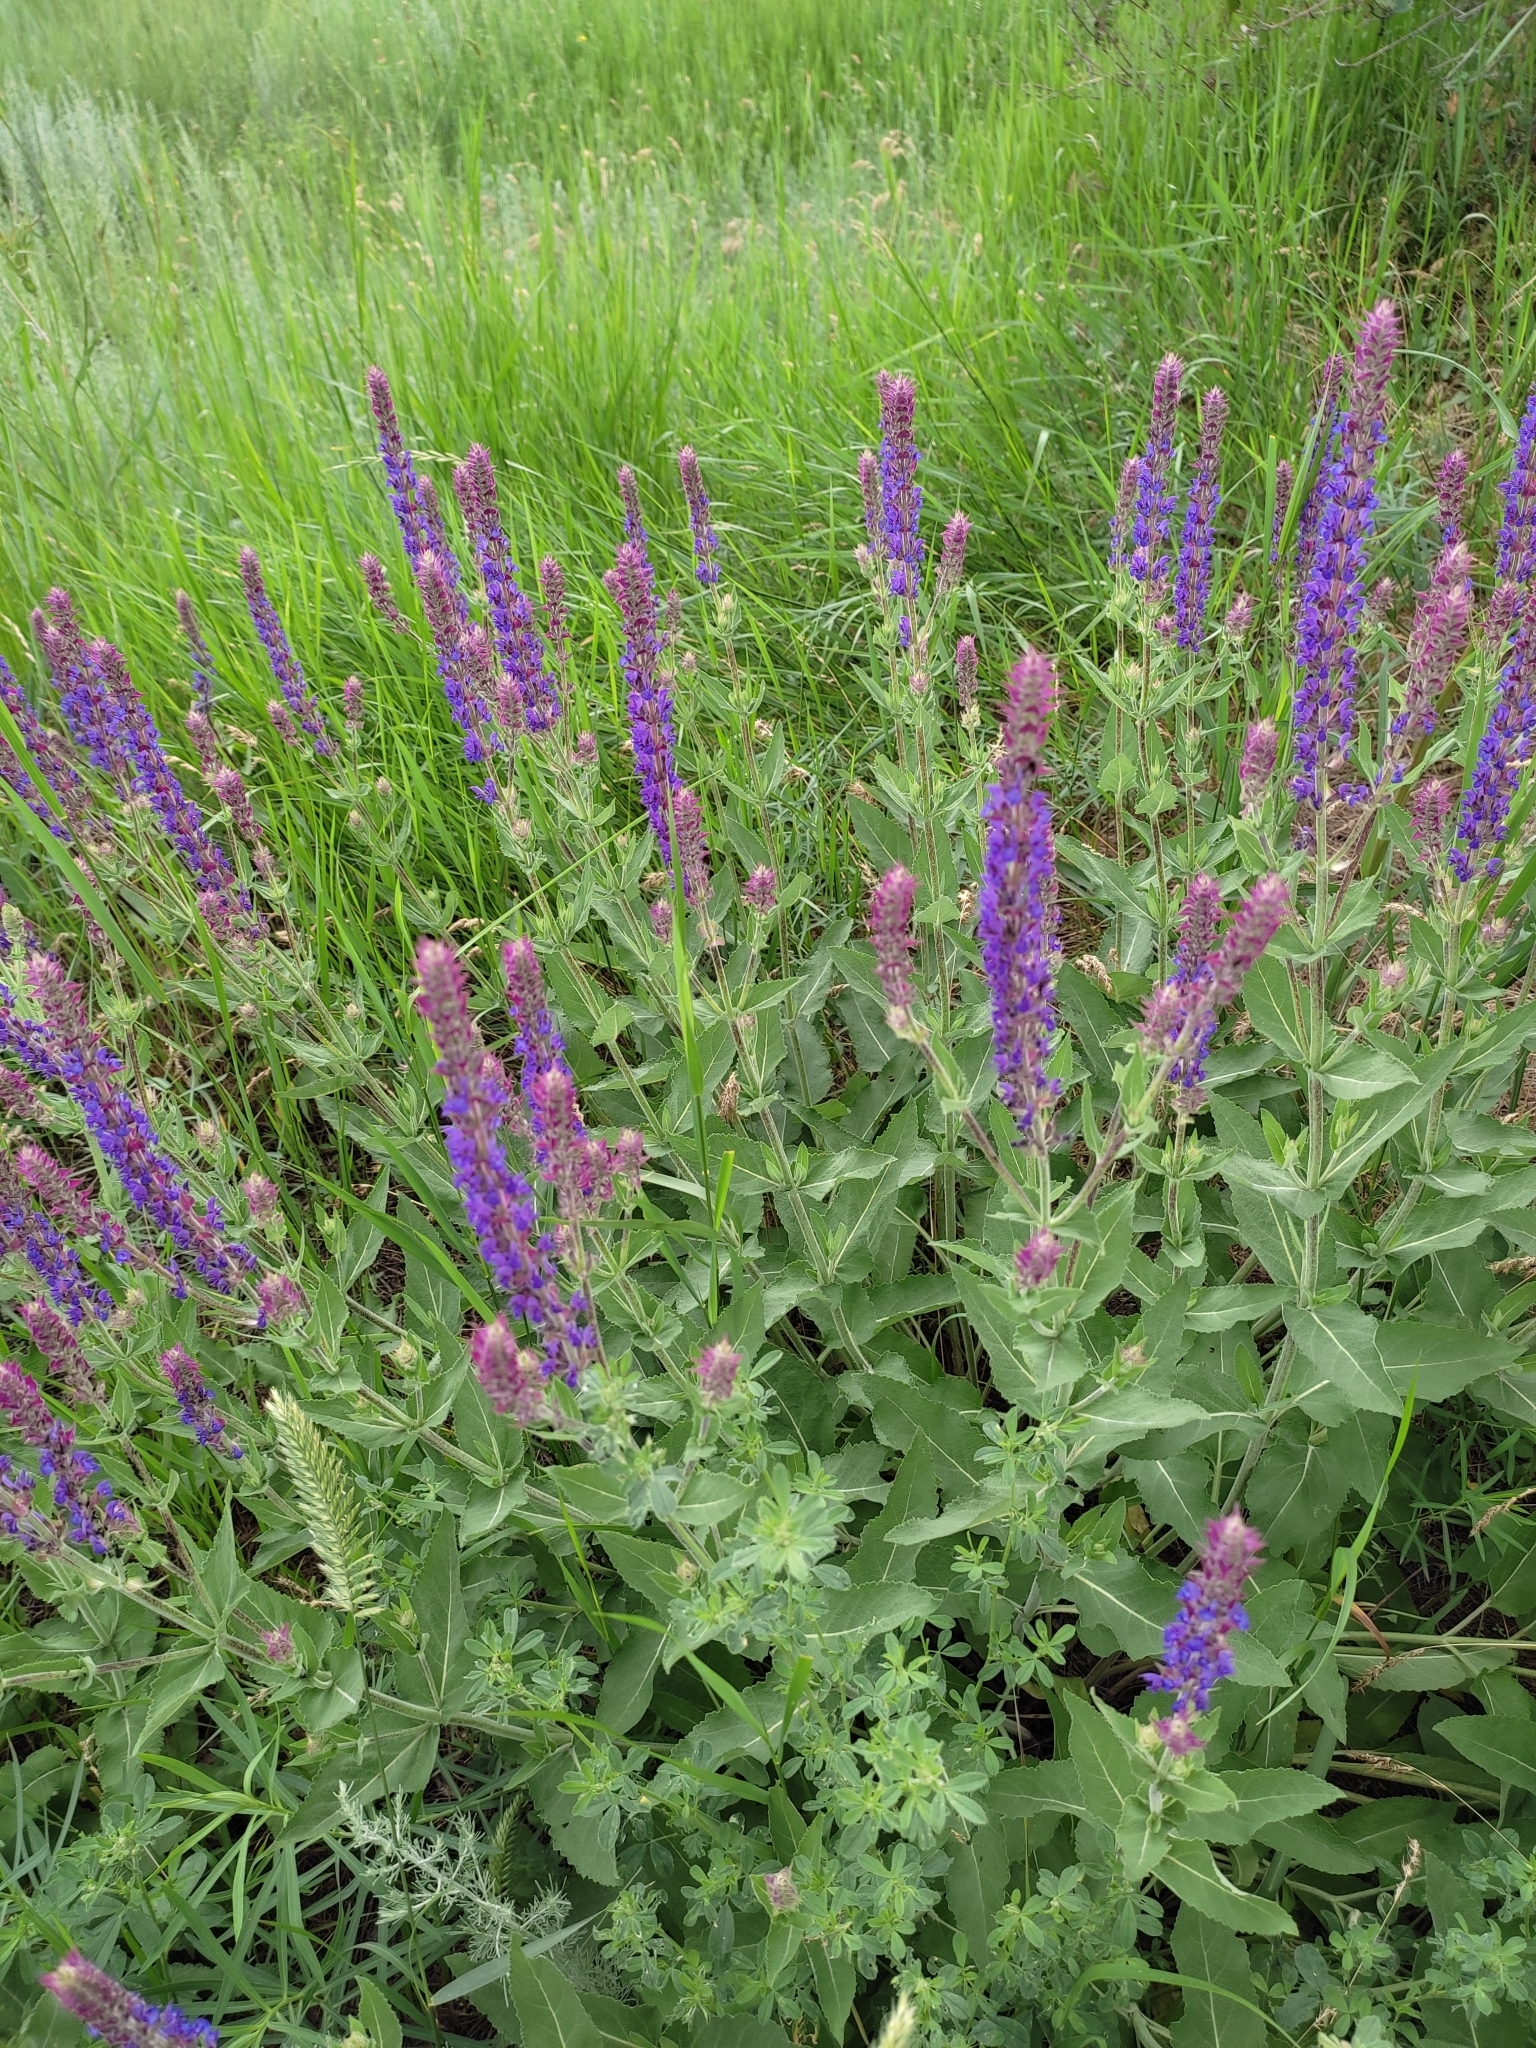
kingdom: Plantae
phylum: Tracheophyta
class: Magnoliopsida
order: Lamiales
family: Lamiaceae
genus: Salvia
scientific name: Salvia nemorosa
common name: Balkan clary
